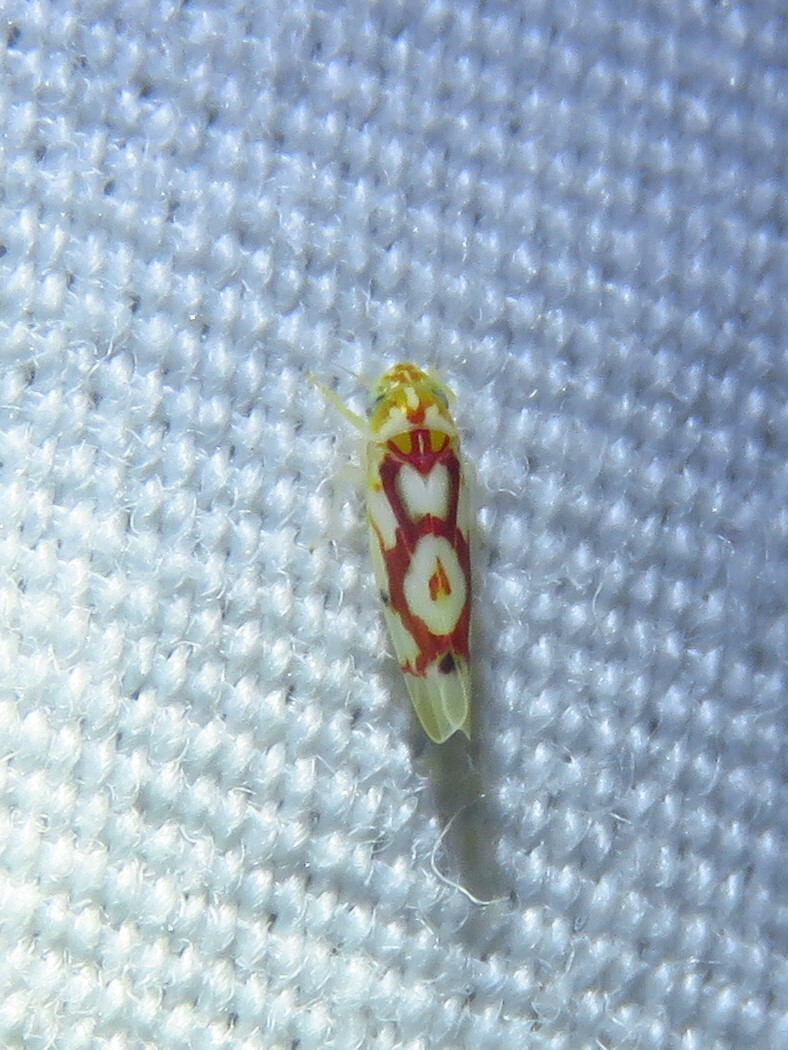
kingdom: Animalia
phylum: Arthropoda
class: Insecta
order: Hemiptera
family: Cicadellidae
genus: Eratoneura
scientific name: Eratoneura ligata
